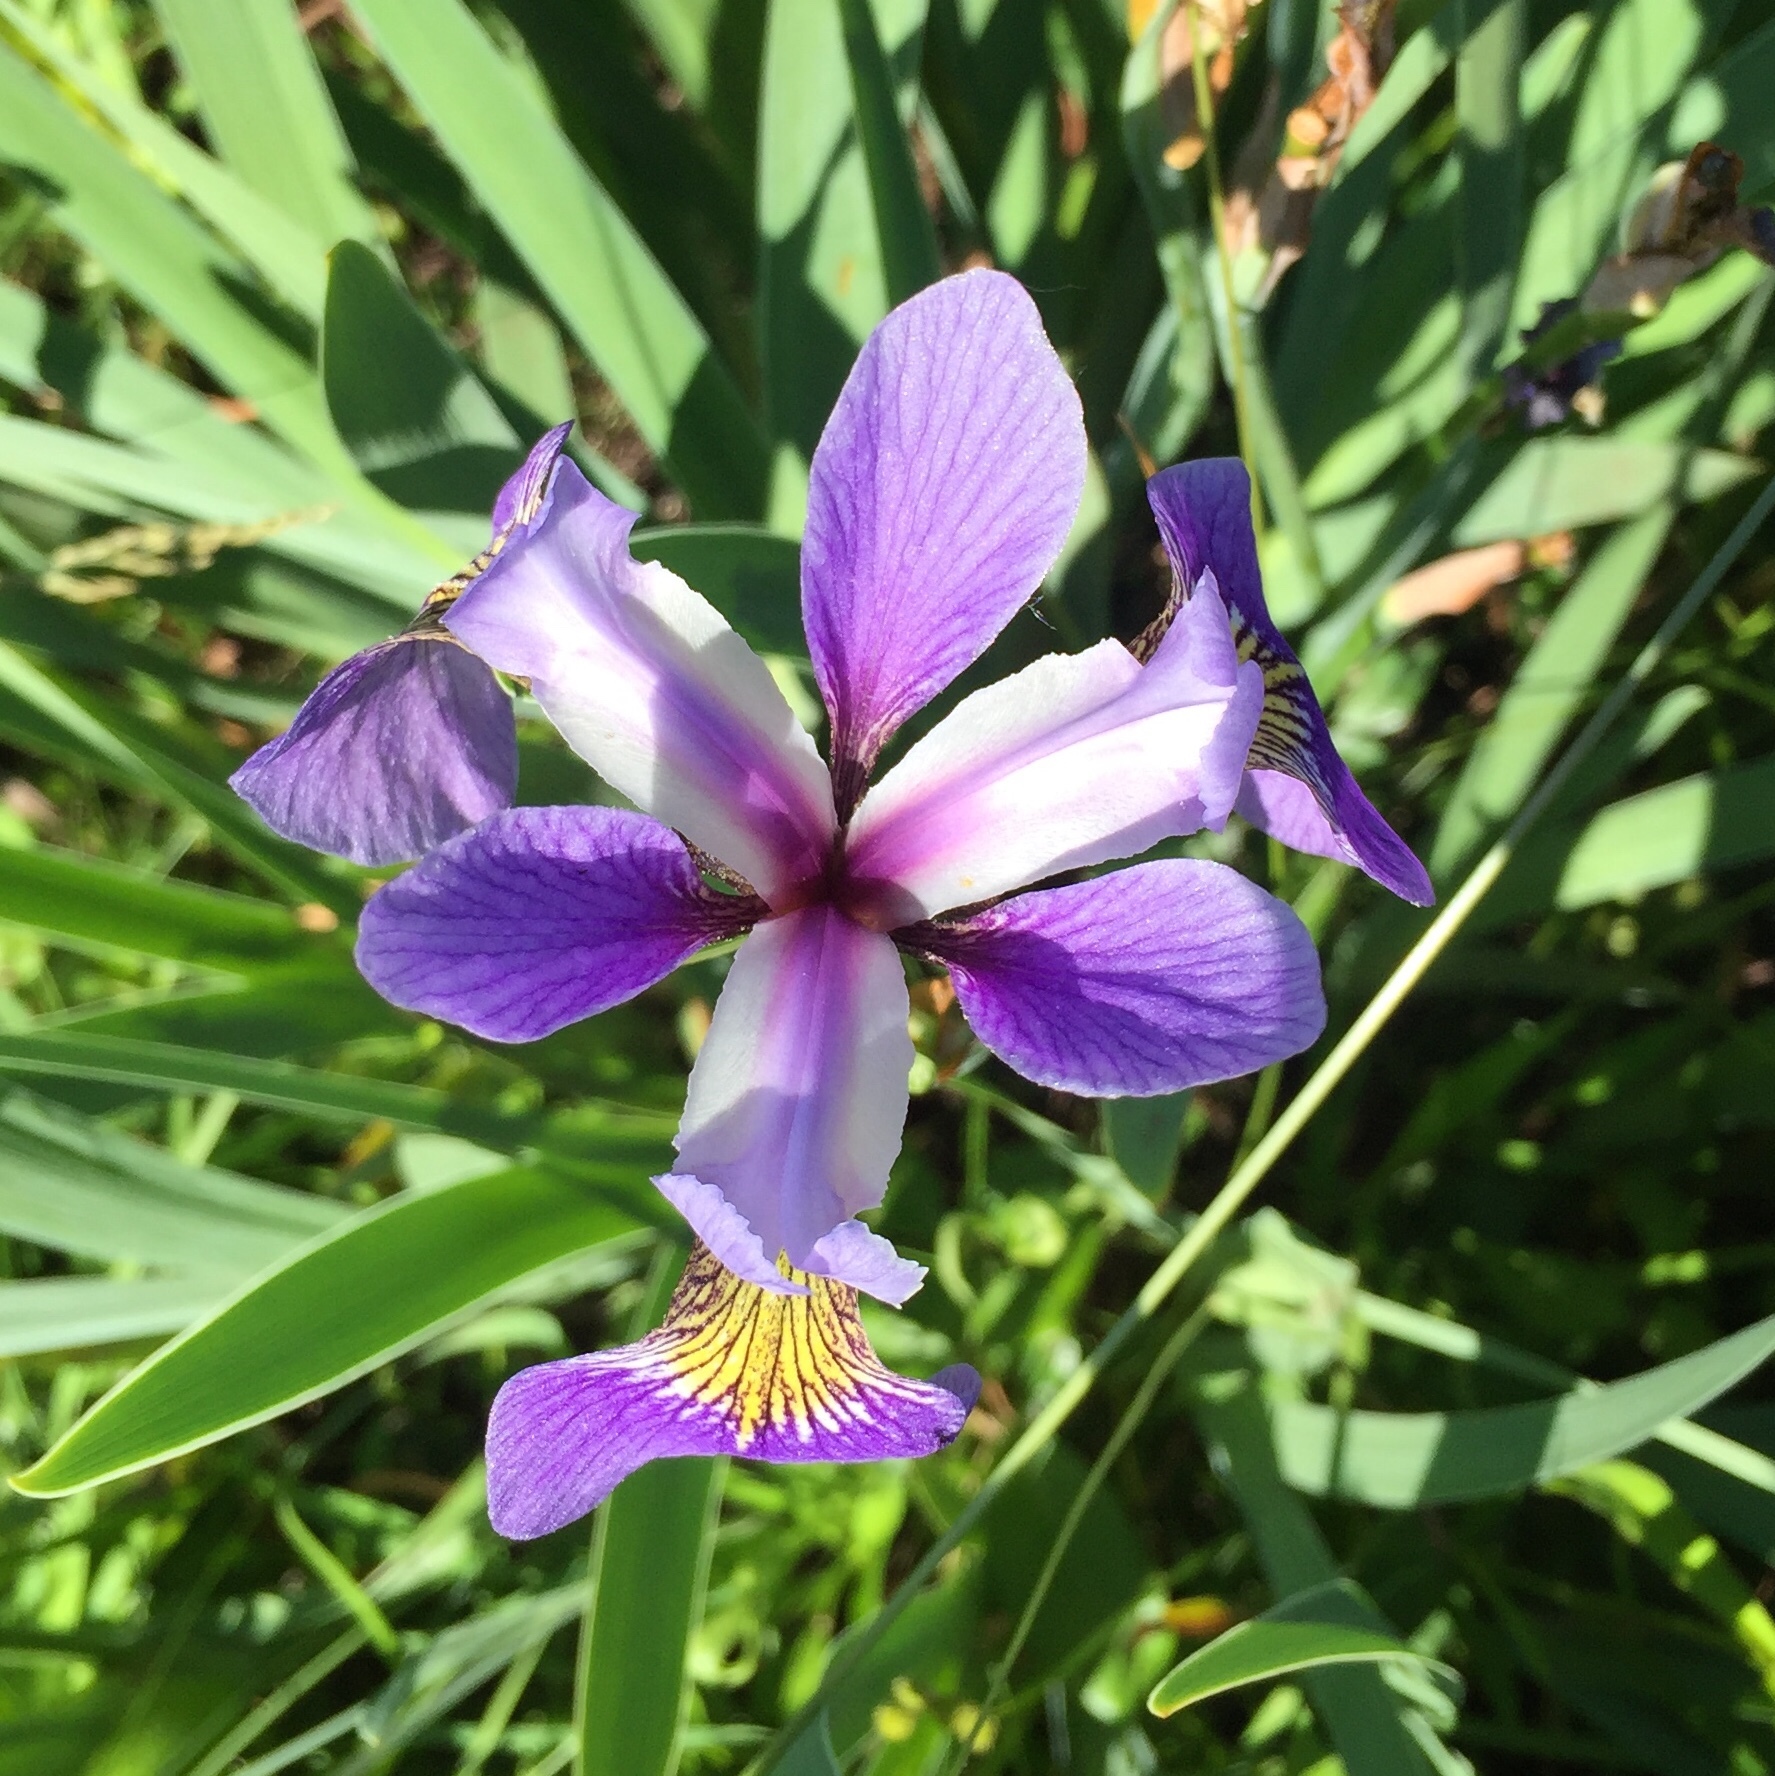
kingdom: Plantae
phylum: Tracheophyta
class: Liliopsida
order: Asparagales
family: Iridaceae
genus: Iris
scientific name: Iris versicolor
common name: Purple iris
